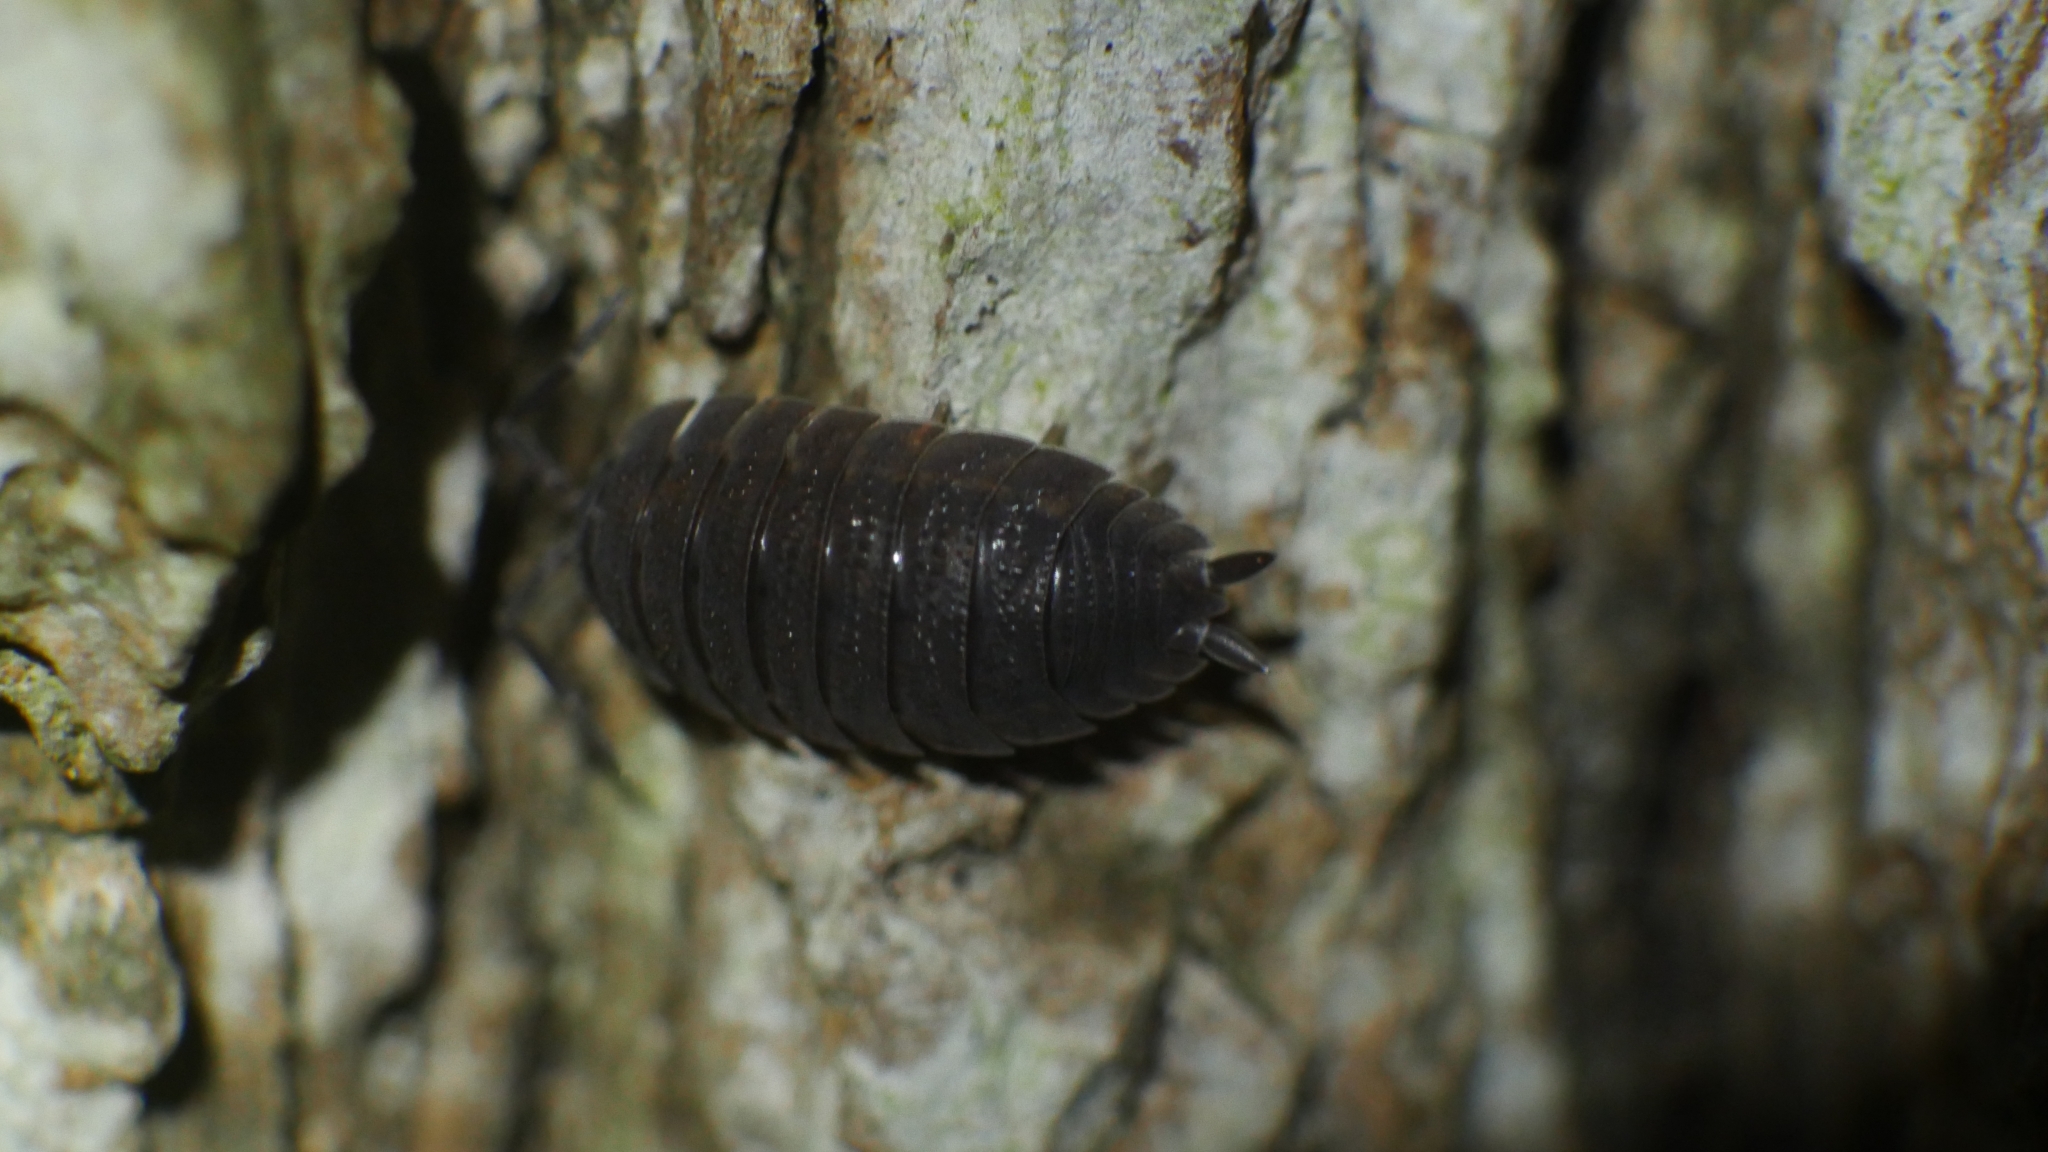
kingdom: Animalia
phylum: Arthropoda
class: Malacostraca
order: Isopoda
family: Porcellionidae
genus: Porcellio
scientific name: Porcellio scaber
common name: Common rough woodlouse
